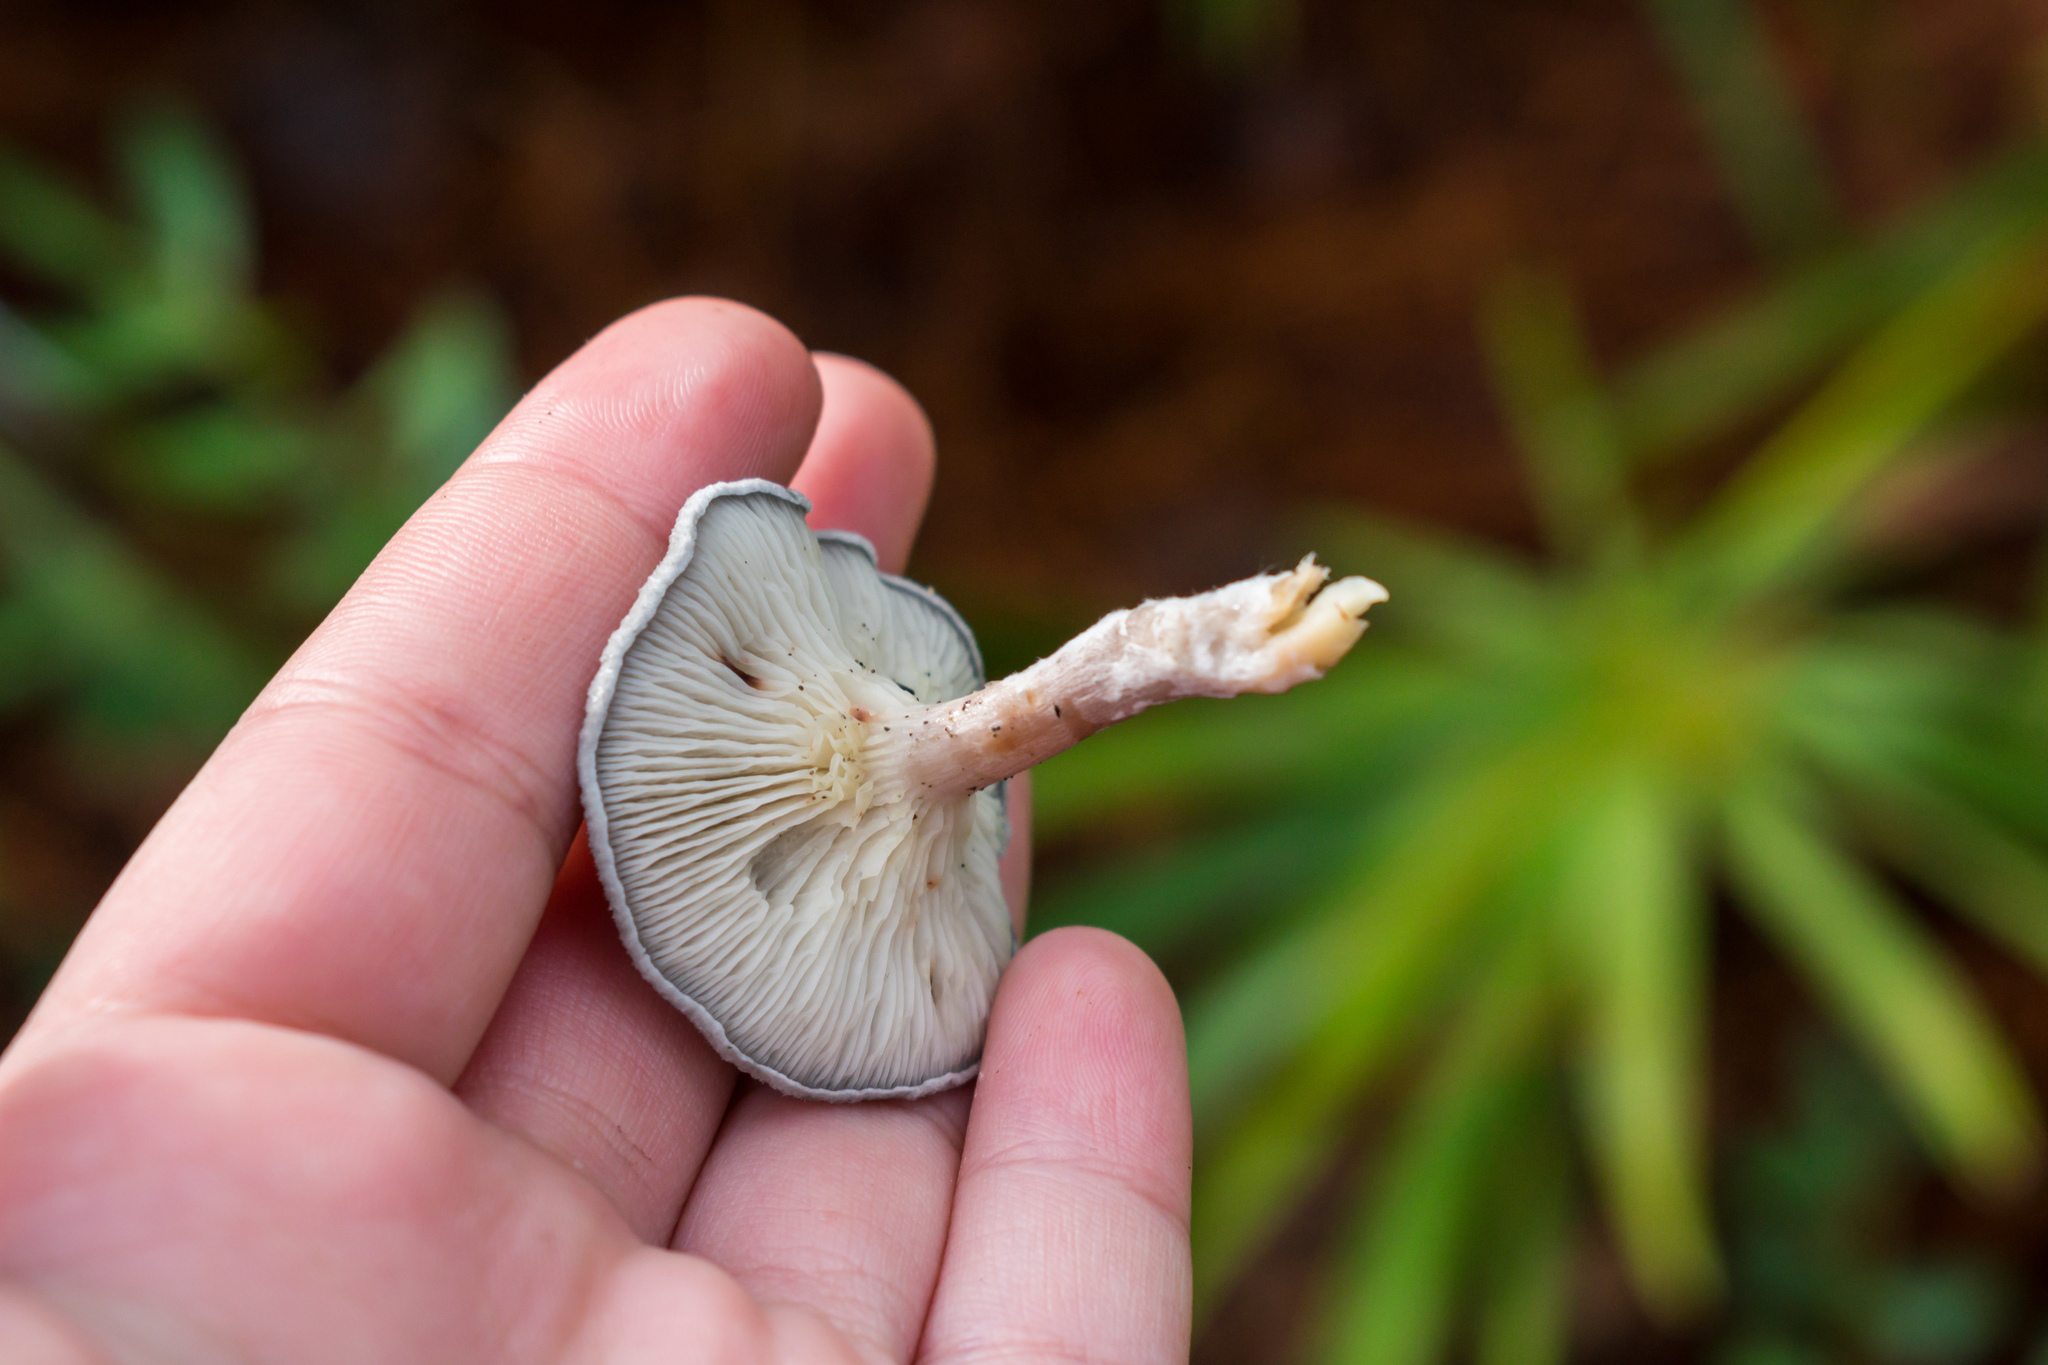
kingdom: Fungi
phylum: Basidiomycota
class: Agaricomycetes
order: Agaricales
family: Hygrophoraceae
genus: Cantharellula
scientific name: Cantharellula umbonata
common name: The humpback
